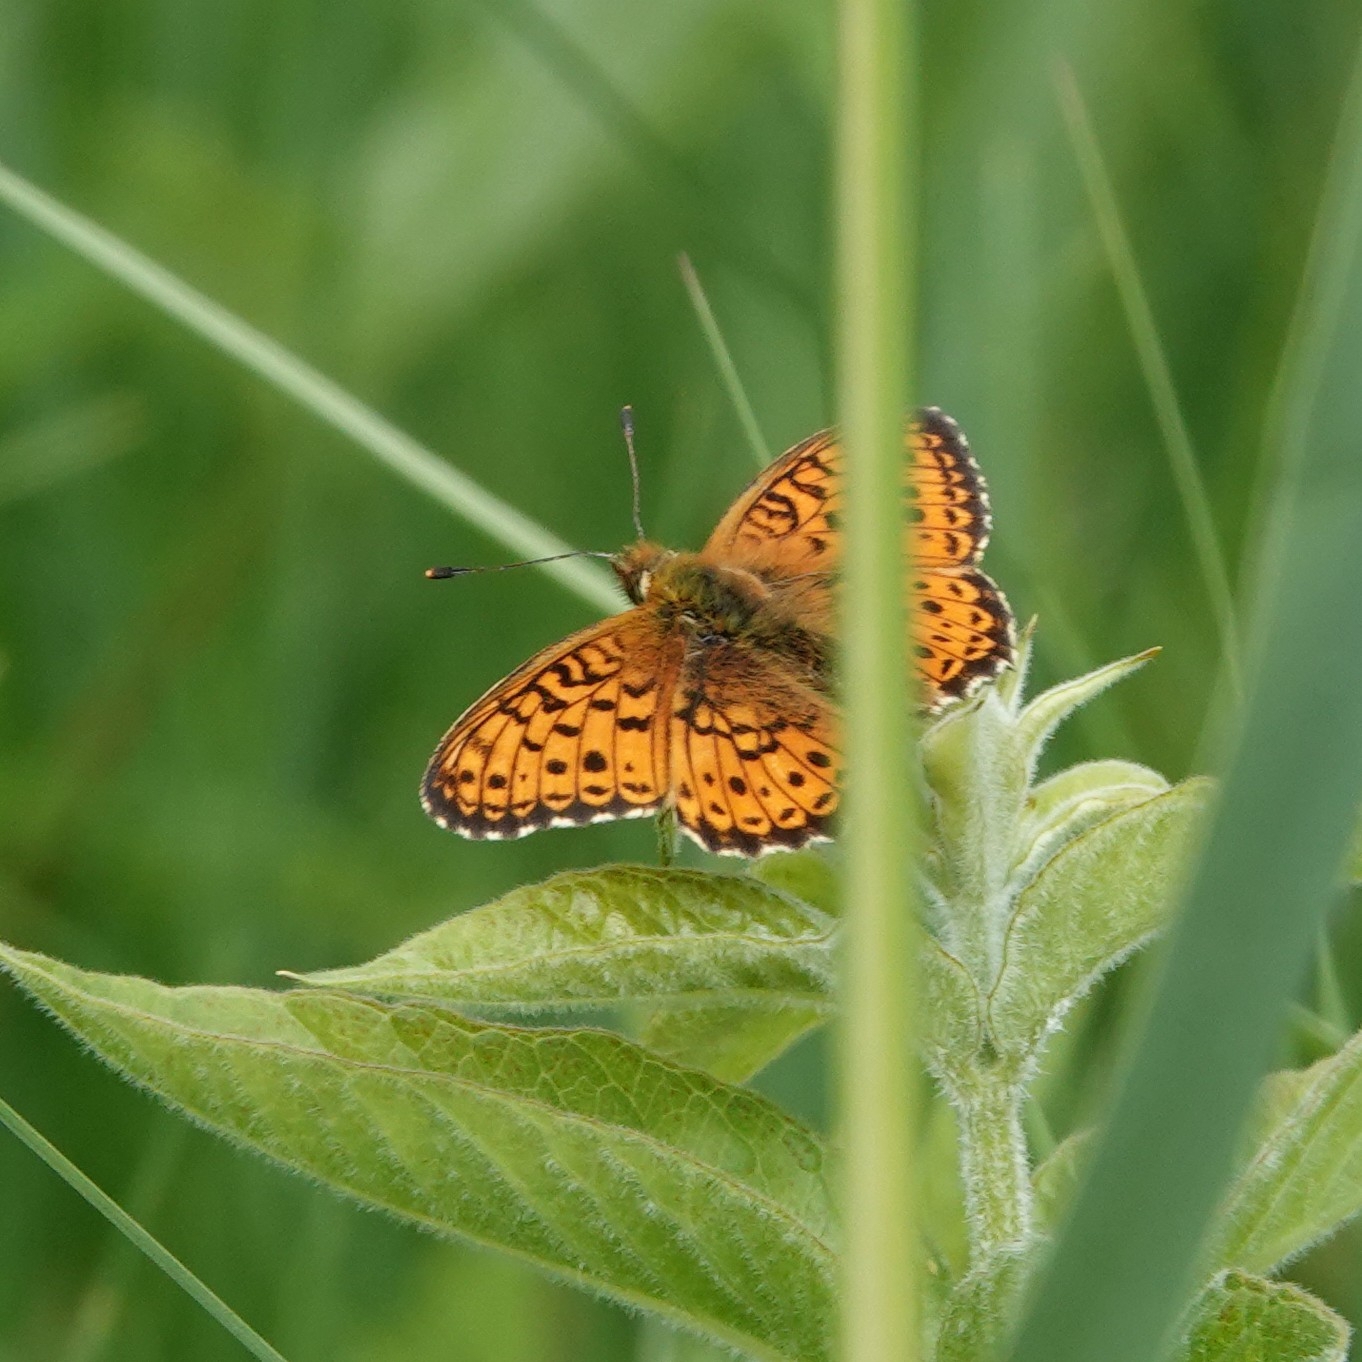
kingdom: Animalia
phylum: Arthropoda
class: Insecta
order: Lepidoptera
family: Nymphalidae
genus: Brenthis
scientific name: Brenthis ino
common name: Lesser marbled fritillary
